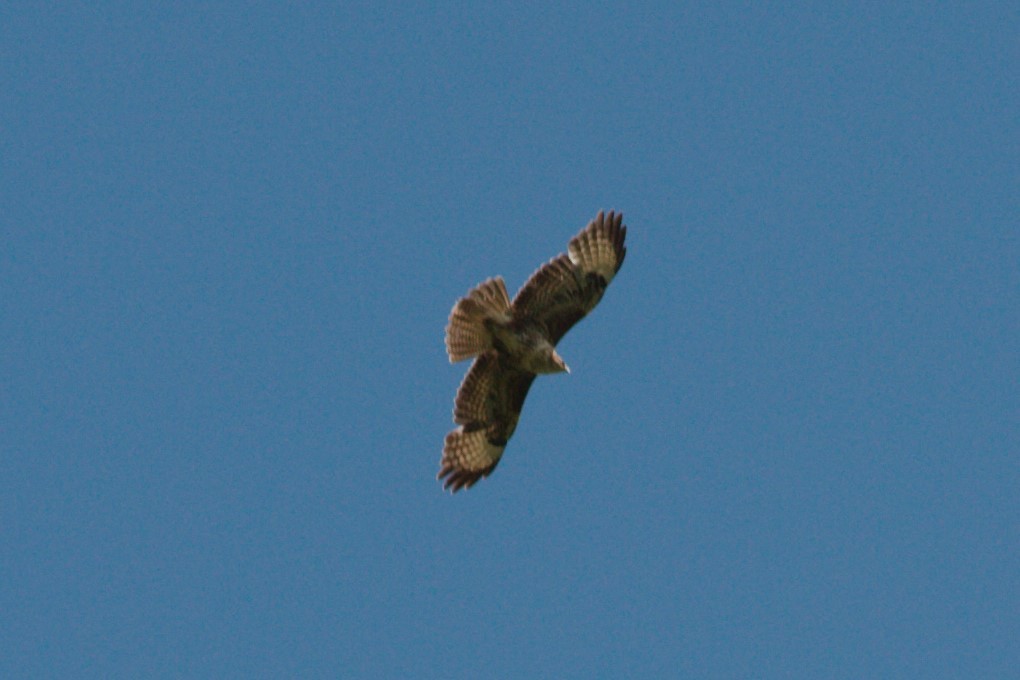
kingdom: Animalia
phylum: Chordata
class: Aves
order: Accipitriformes
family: Accipitridae
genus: Buteo
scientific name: Buteo buteo
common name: Common buzzard
